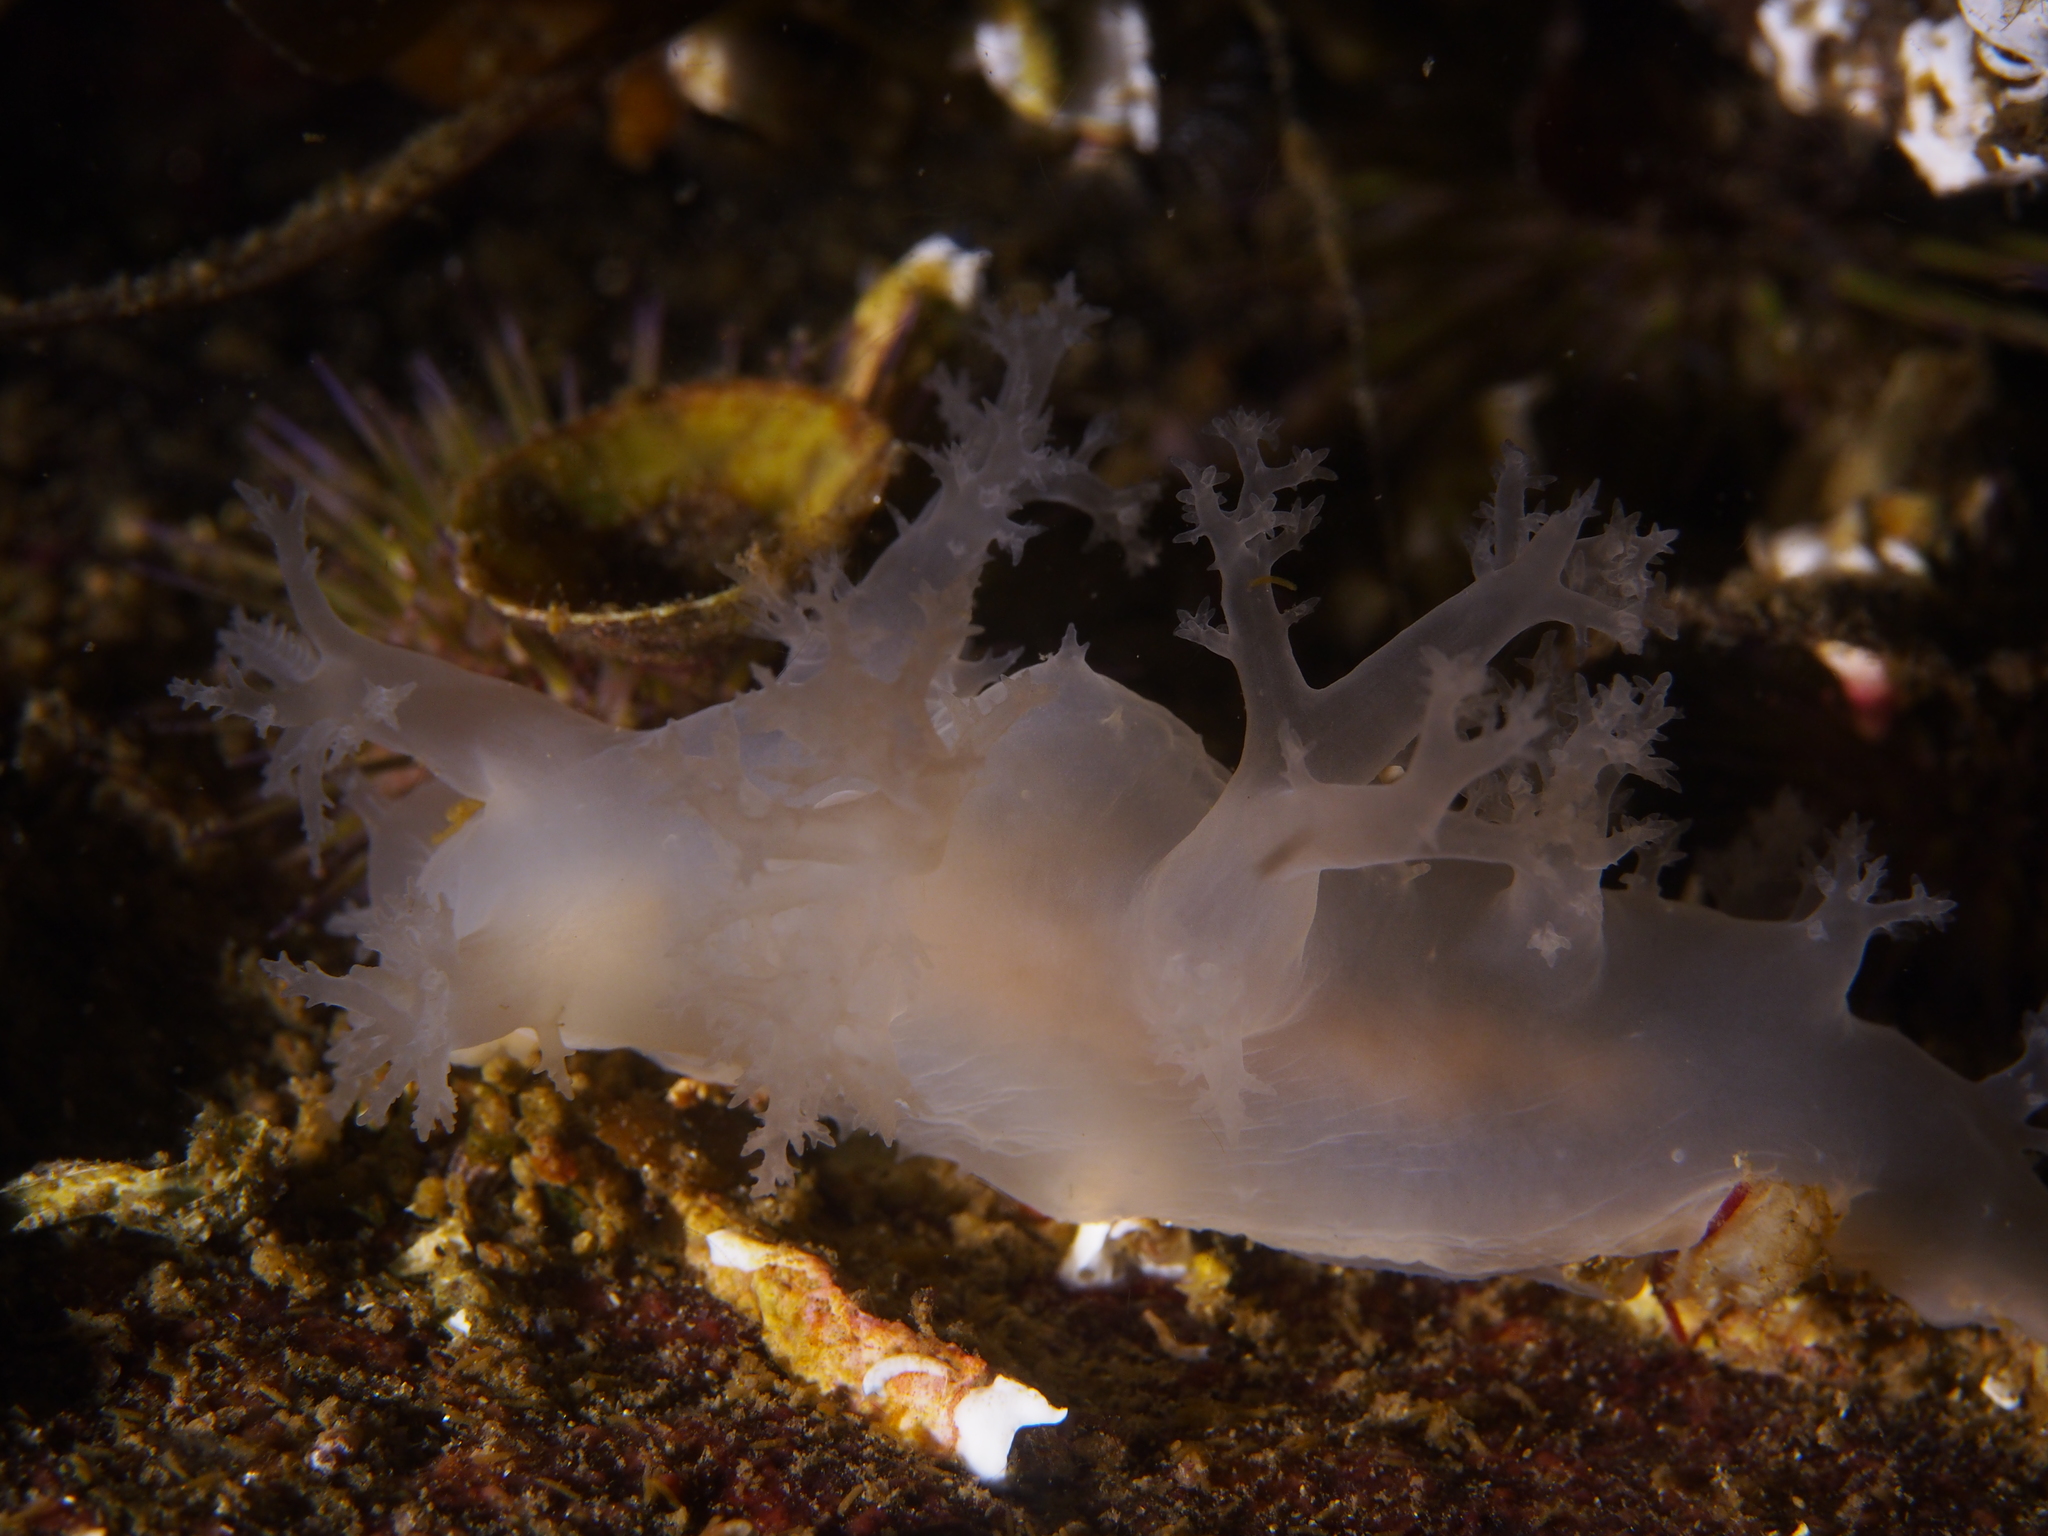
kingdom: Animalia
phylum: Mollusca
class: Gastropoda
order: Nudibranchia
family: Dendronotidae
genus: Dendronotus
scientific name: Dendronotus lacteus
